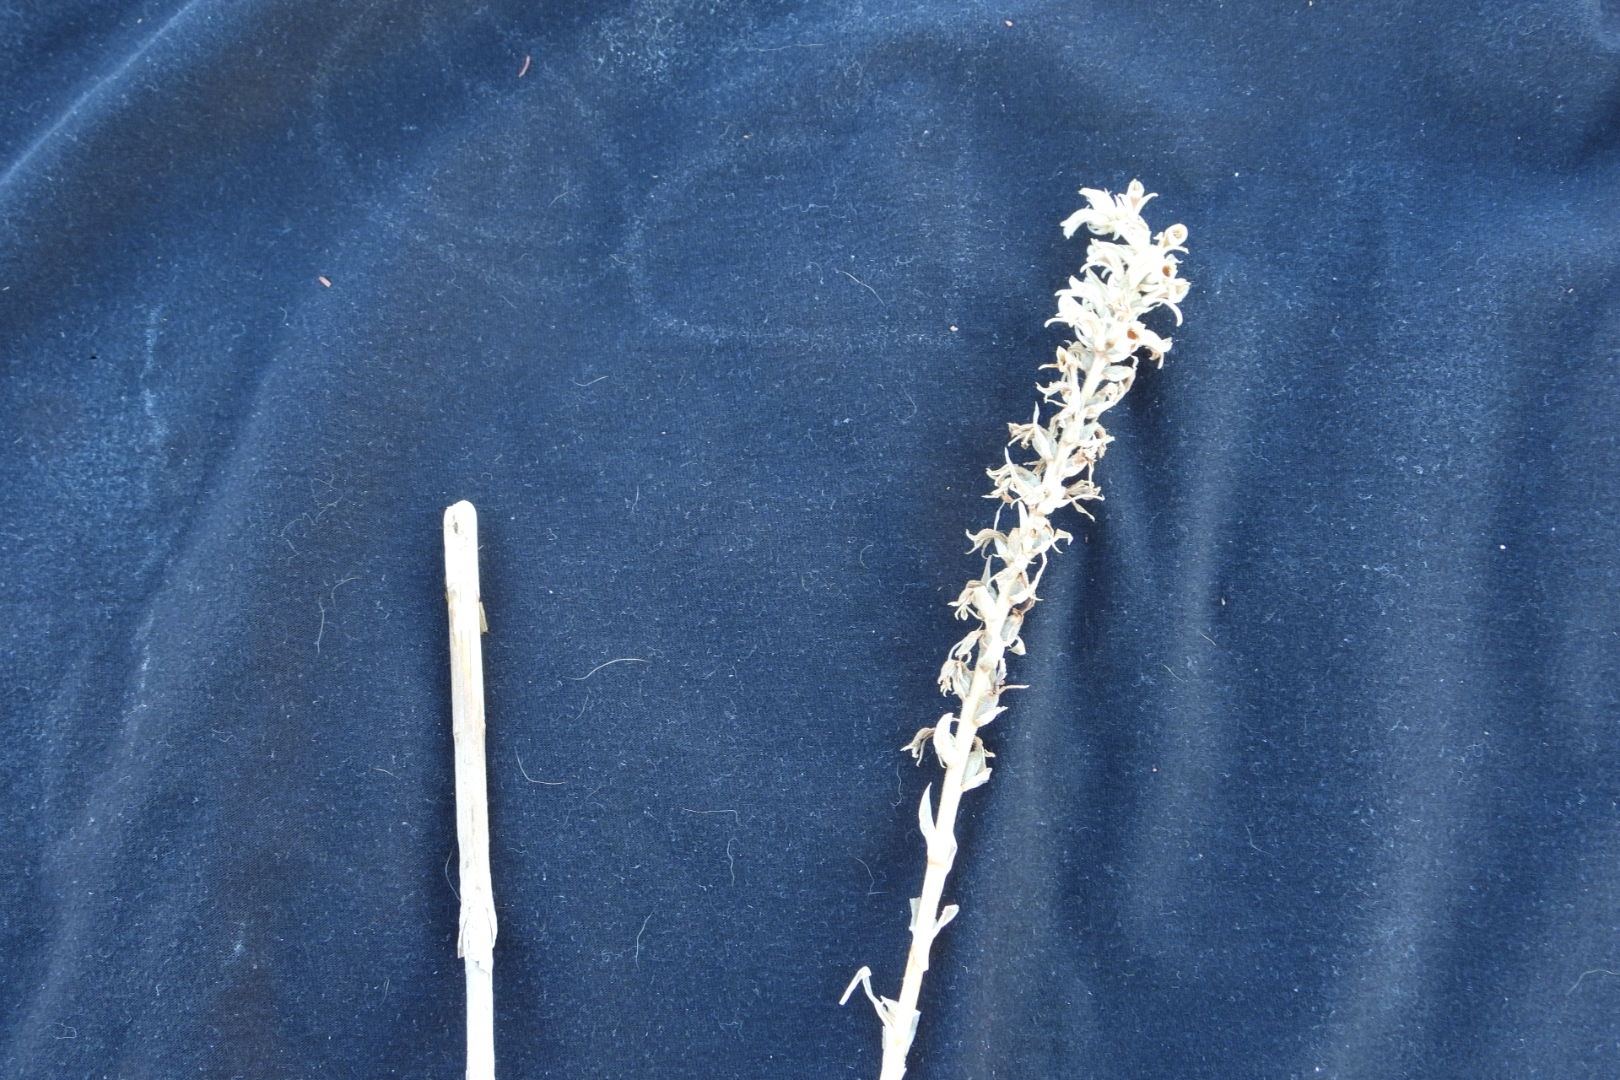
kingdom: Plantae
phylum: Tracheophyta
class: Liliopsida
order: Asparagales
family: Orchidaceae
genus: Deiregyne
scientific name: Deiregyne rhombilabia
